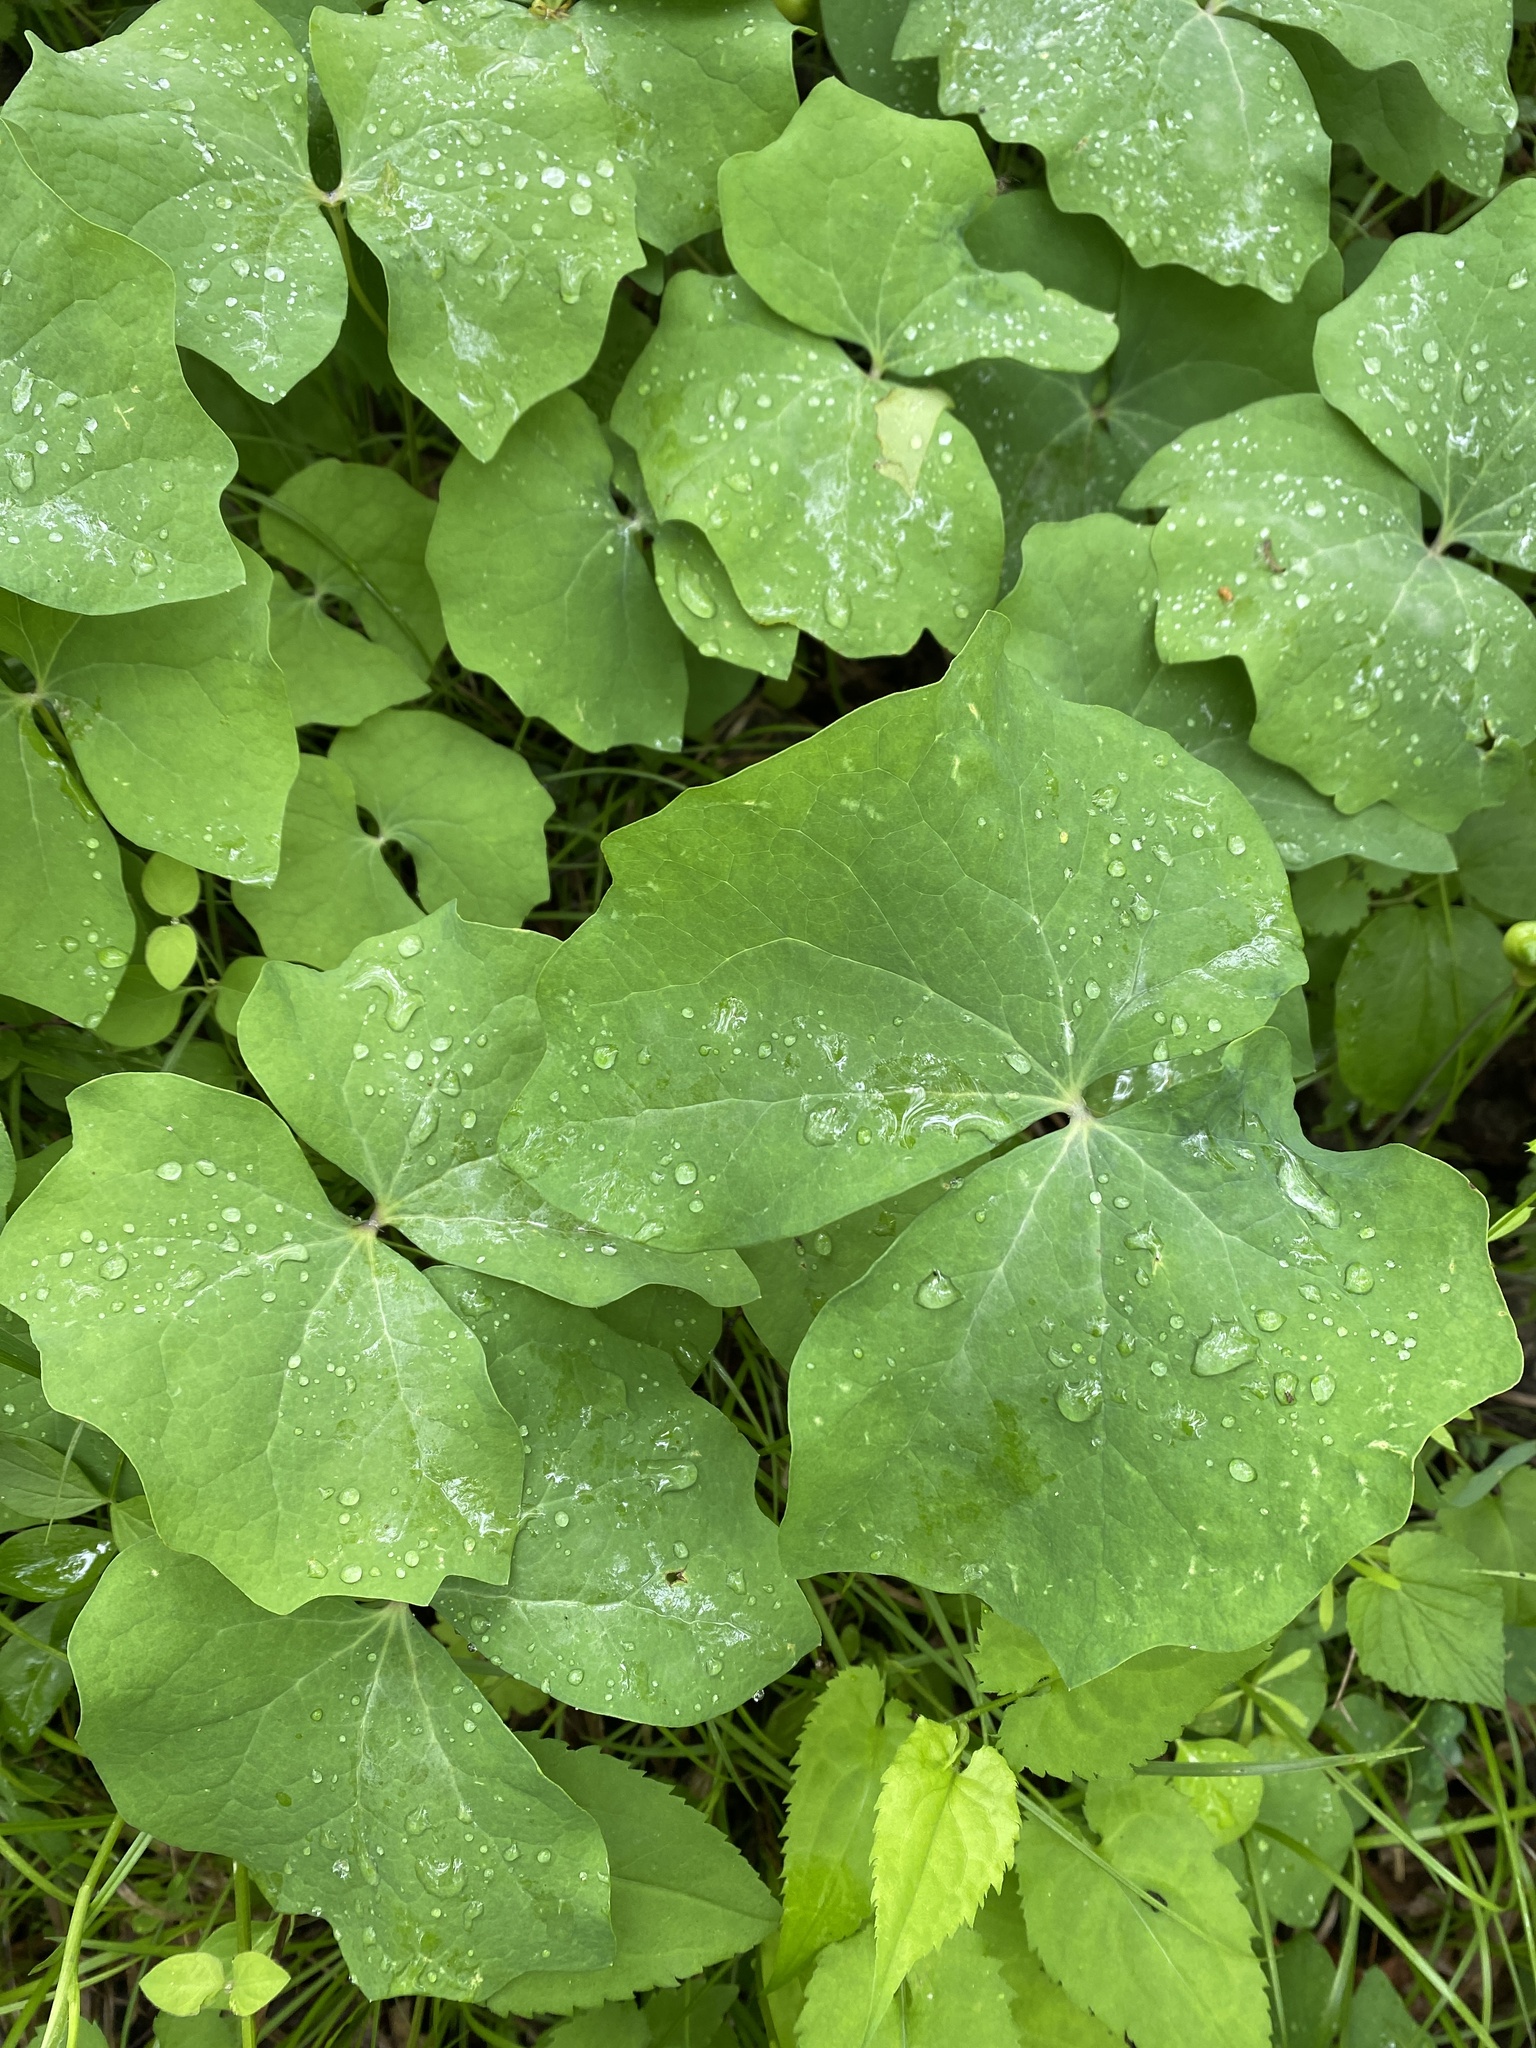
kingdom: Plantae
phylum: Tracheophyta
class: Magnoliopsida
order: Ranunculales
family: Berberidaceae
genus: Jeffersonia
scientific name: Jeffersonia diphylla
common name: Rheumatism-root
